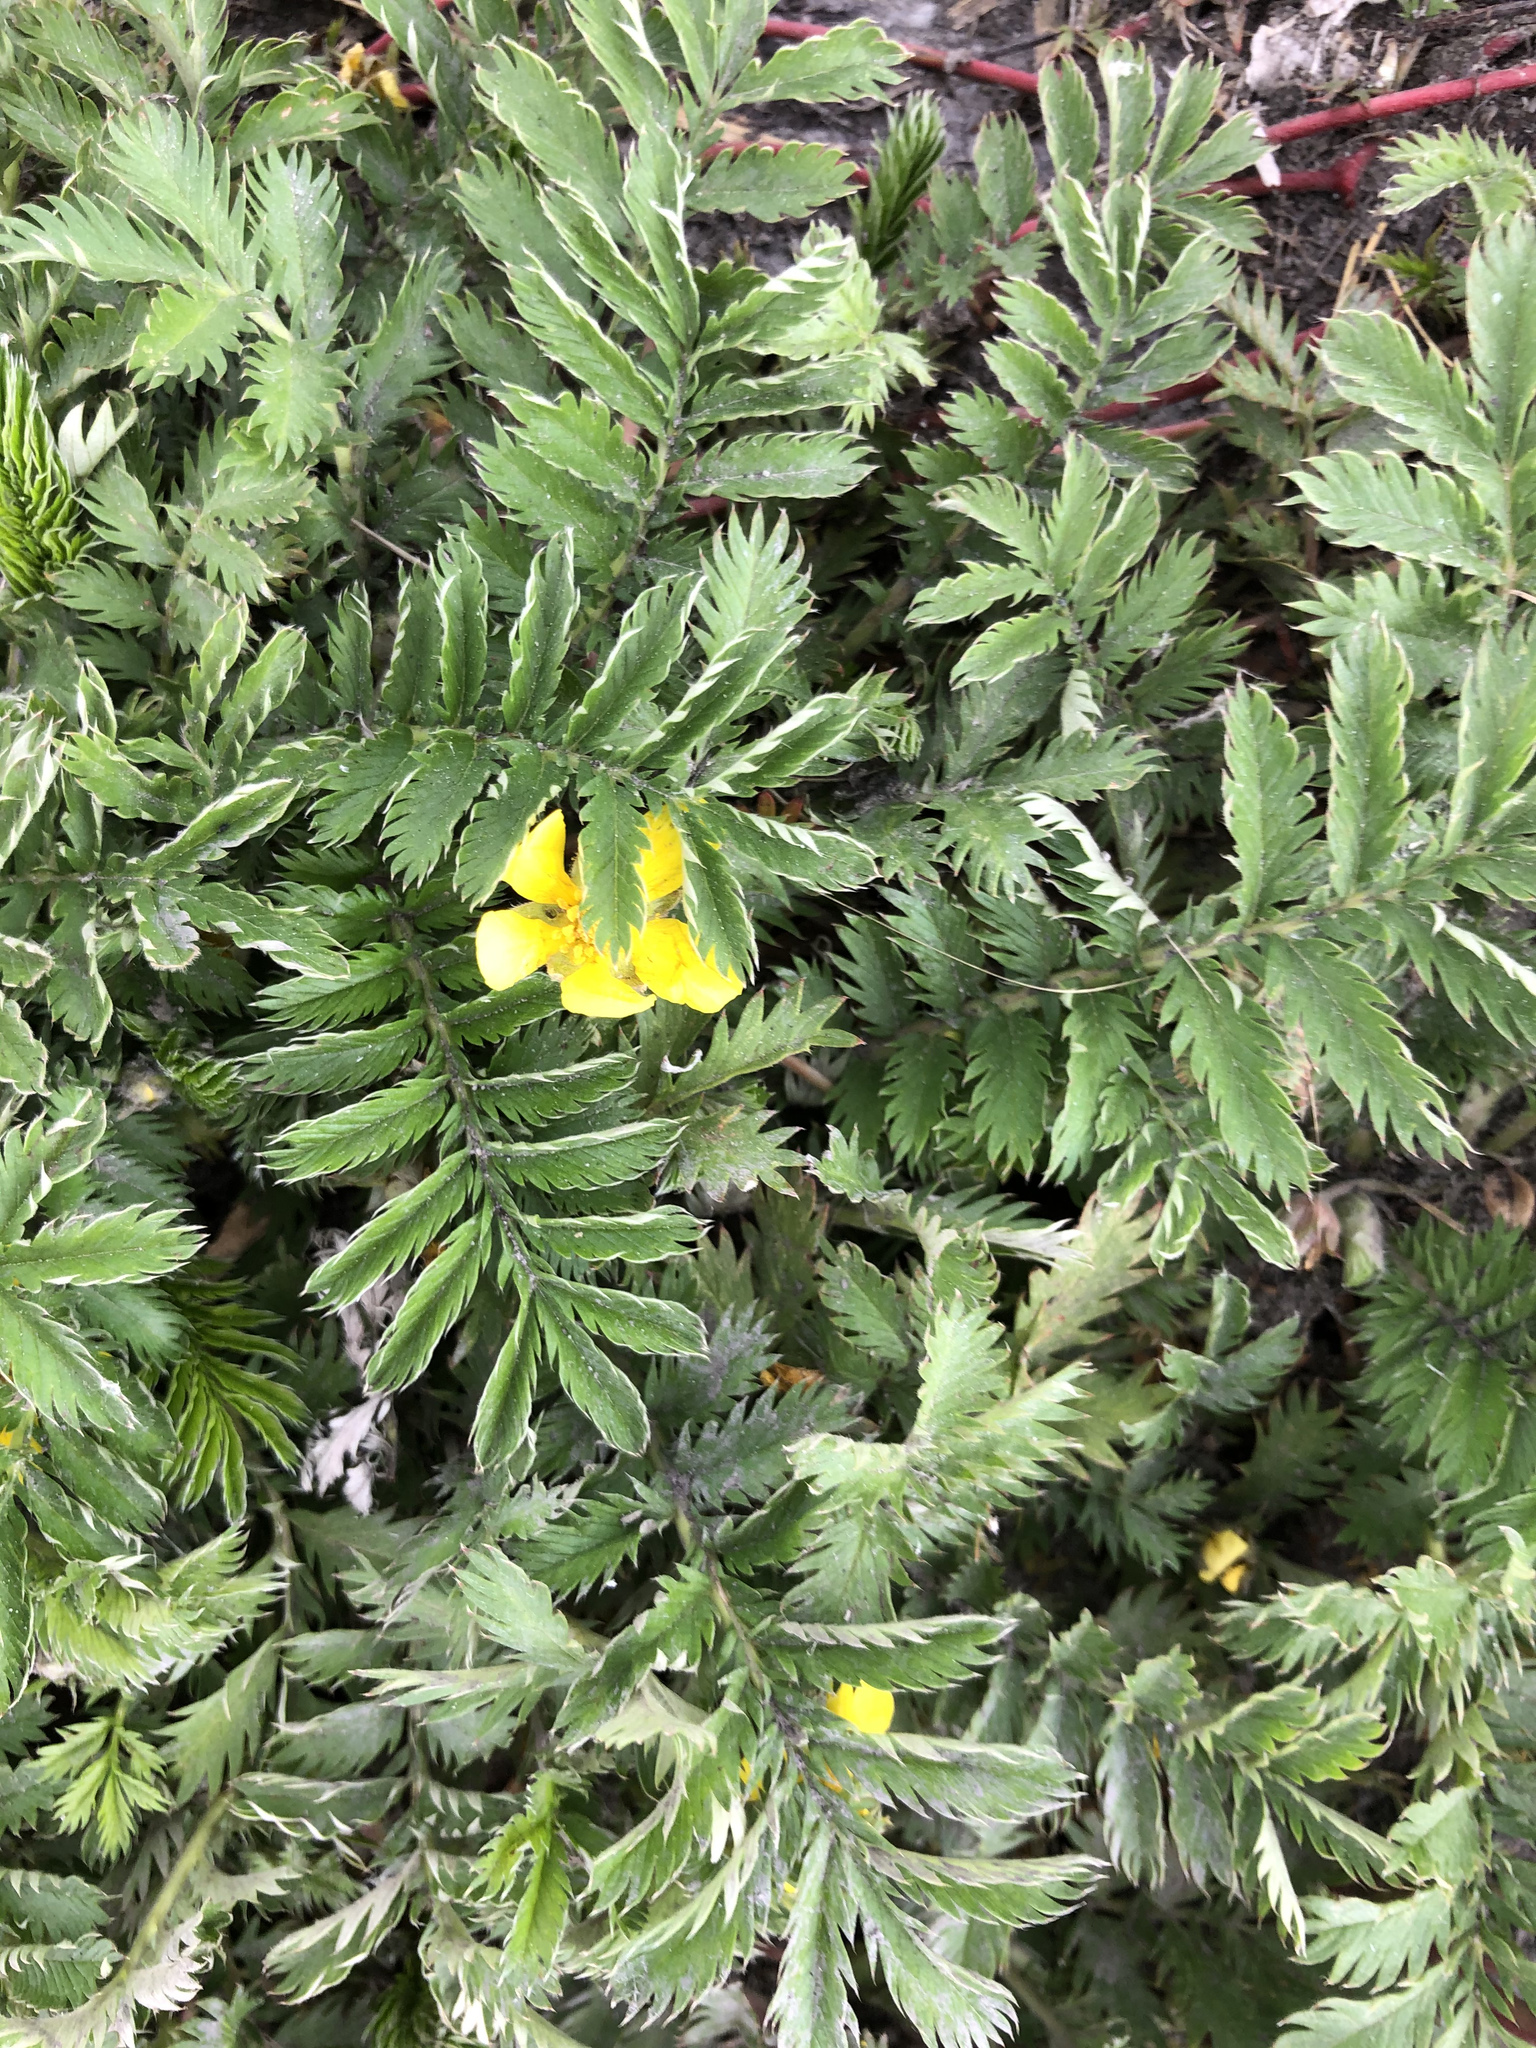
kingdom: Plantae
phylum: Tracheophyta
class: Magnoliopsida
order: Rosales
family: Rosaceae
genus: Argentina
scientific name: Argentina anserina
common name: Common silverweed
